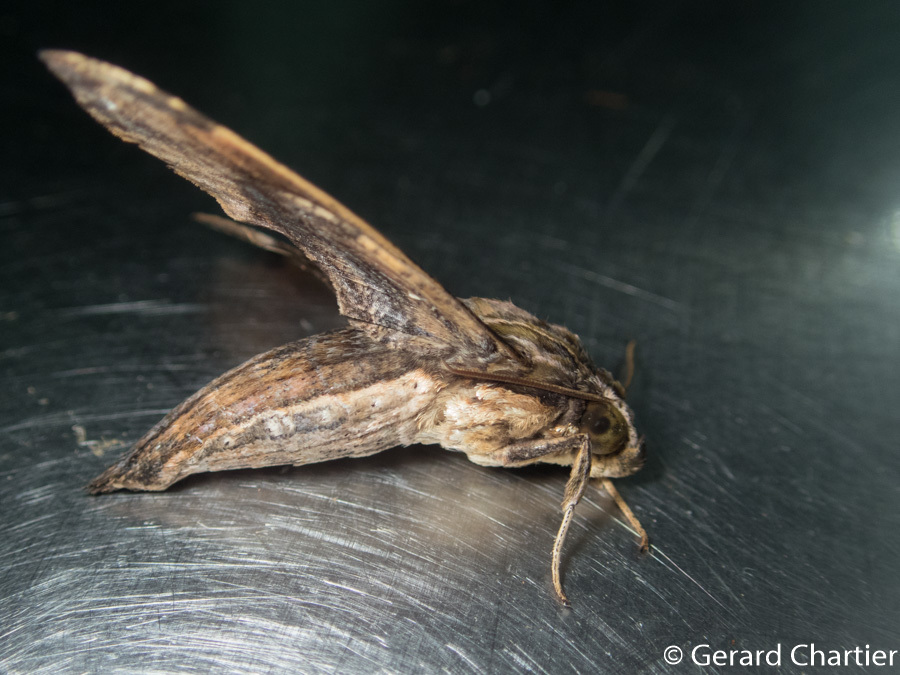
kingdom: Animalia
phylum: Arthropoda
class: Insecta
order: Lepidoptera
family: Sphingidae
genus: Eupanacra
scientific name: Eupanacra variolosa
